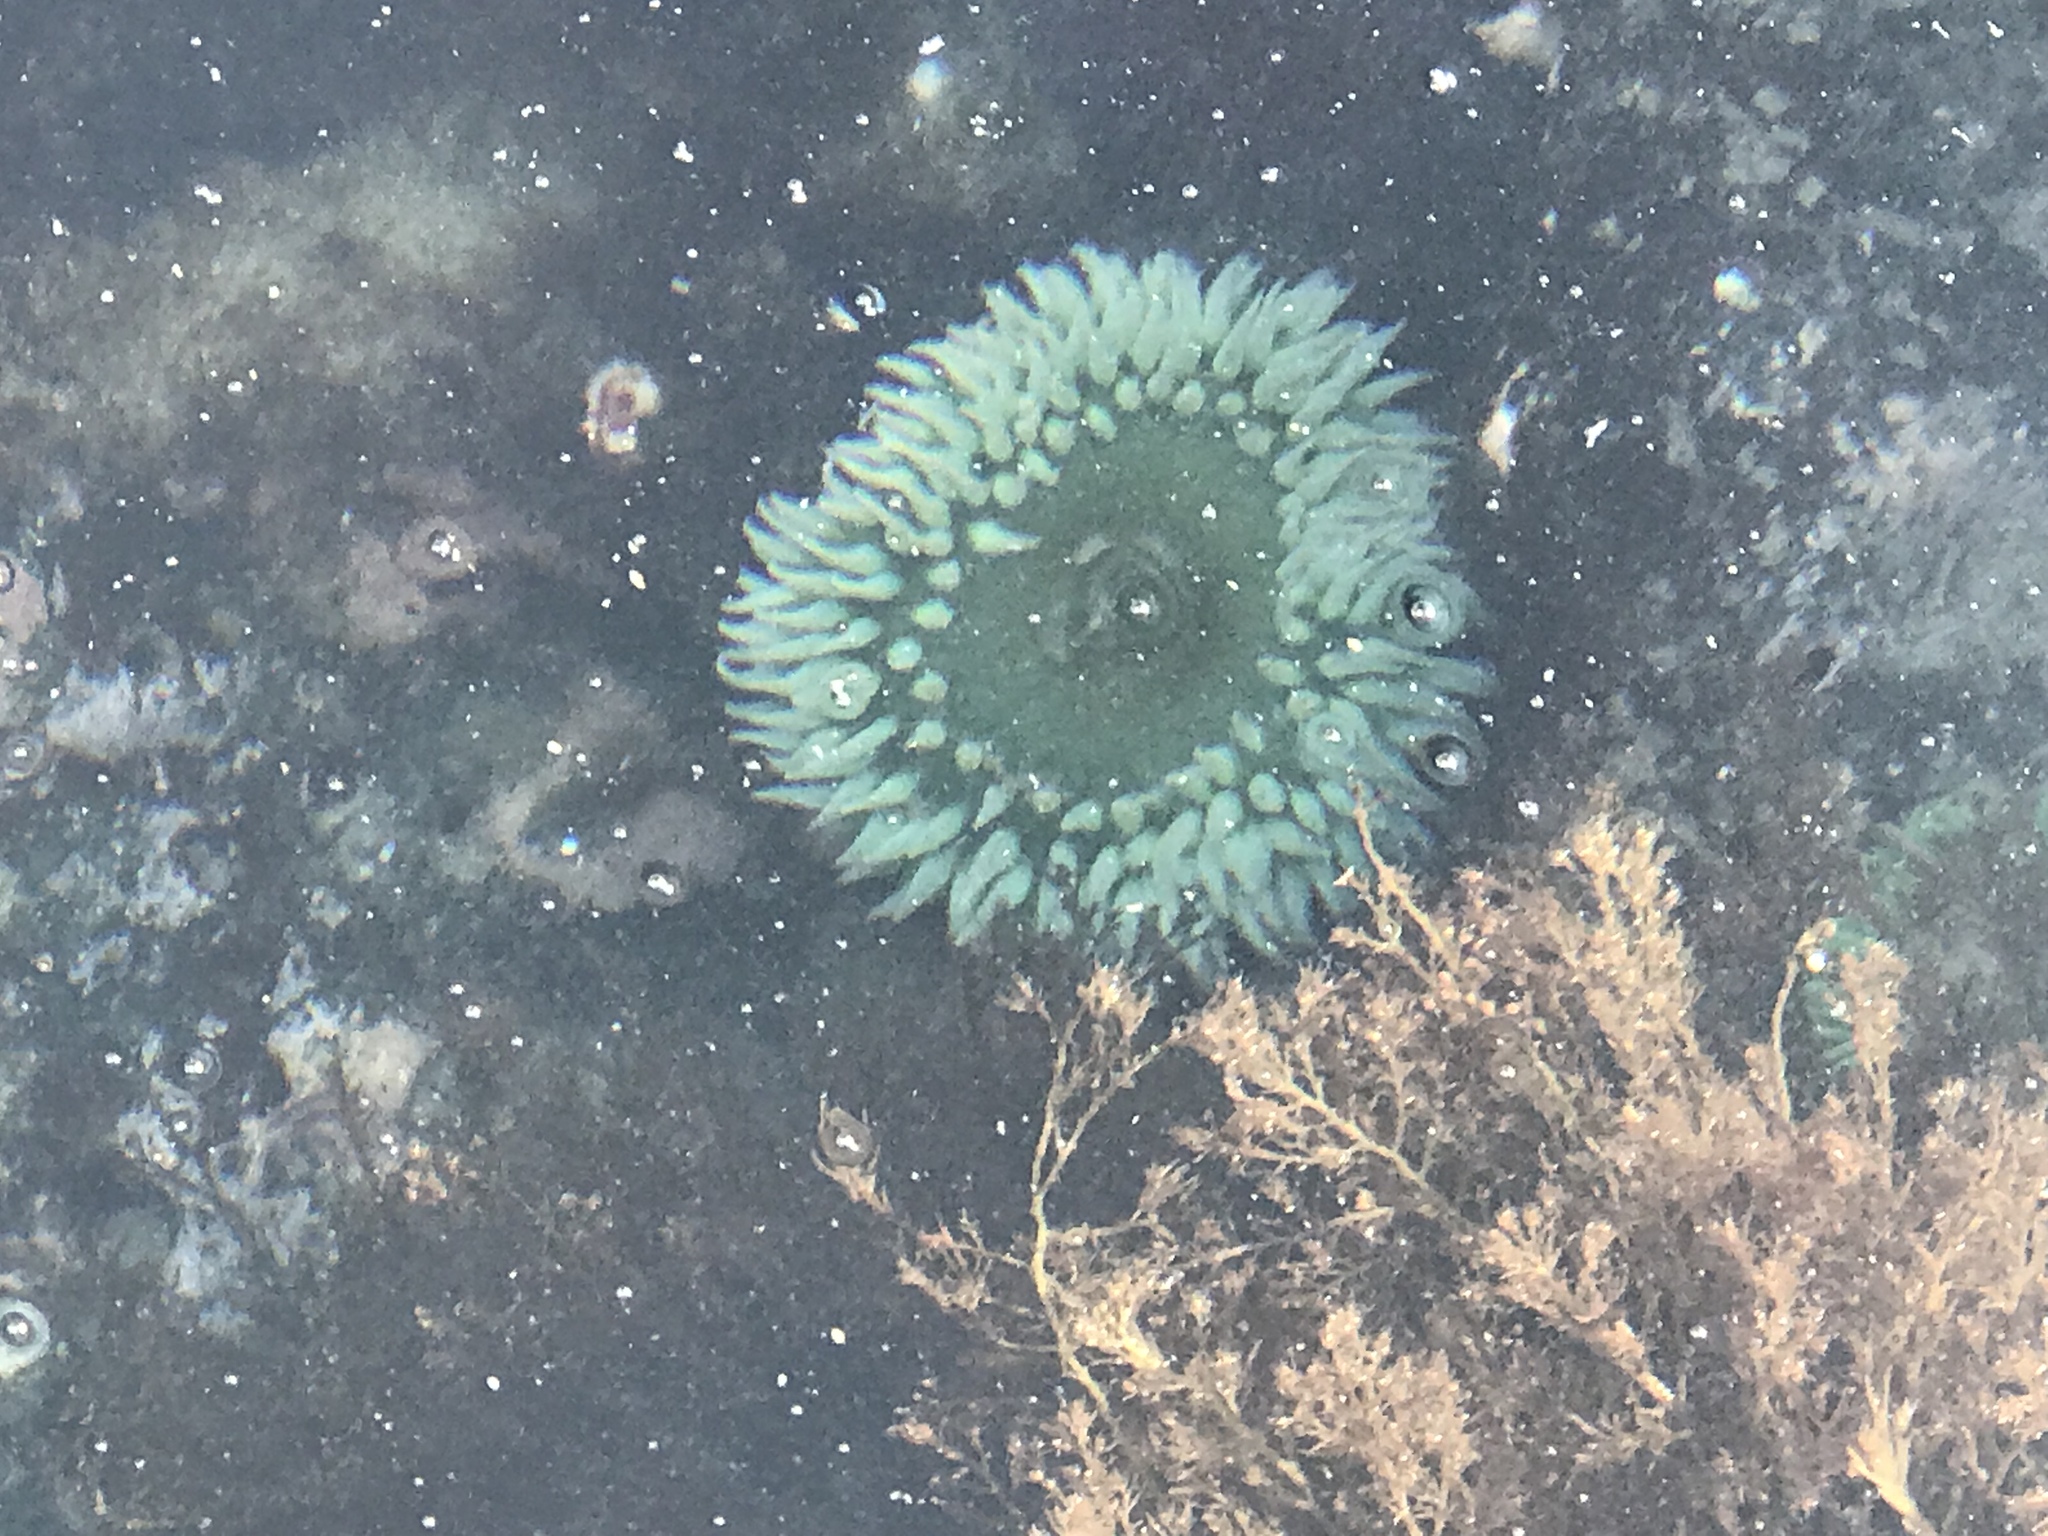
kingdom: Animalia
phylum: Cnidaria
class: Anthozoa
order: Actiniaria
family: Actiniidae
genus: Anthopleura
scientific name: Anthopleura xanthogrammica
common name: Giant green anemone
